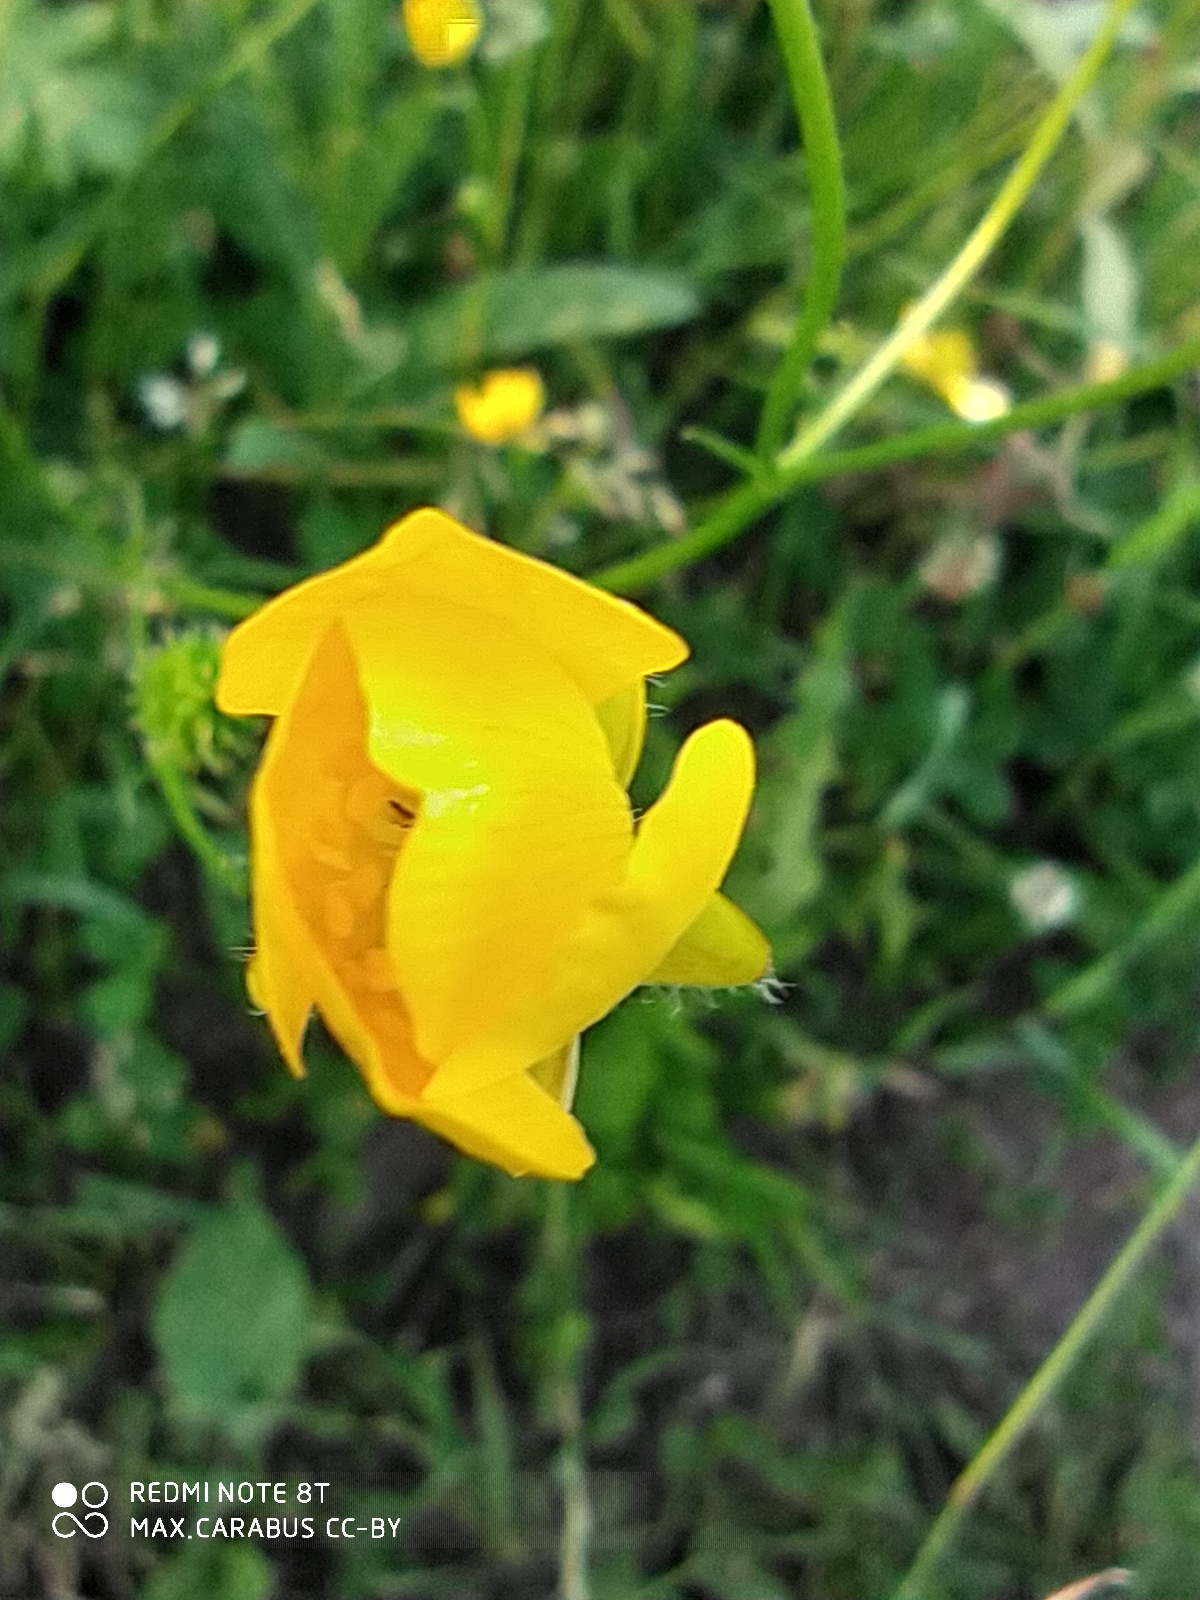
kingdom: Plantae
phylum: Tracheophyta
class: Magnoliopsida
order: Ranunculales
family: Ranunculaceae
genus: Ranunculus
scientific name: Ranunculus polyanthemos
